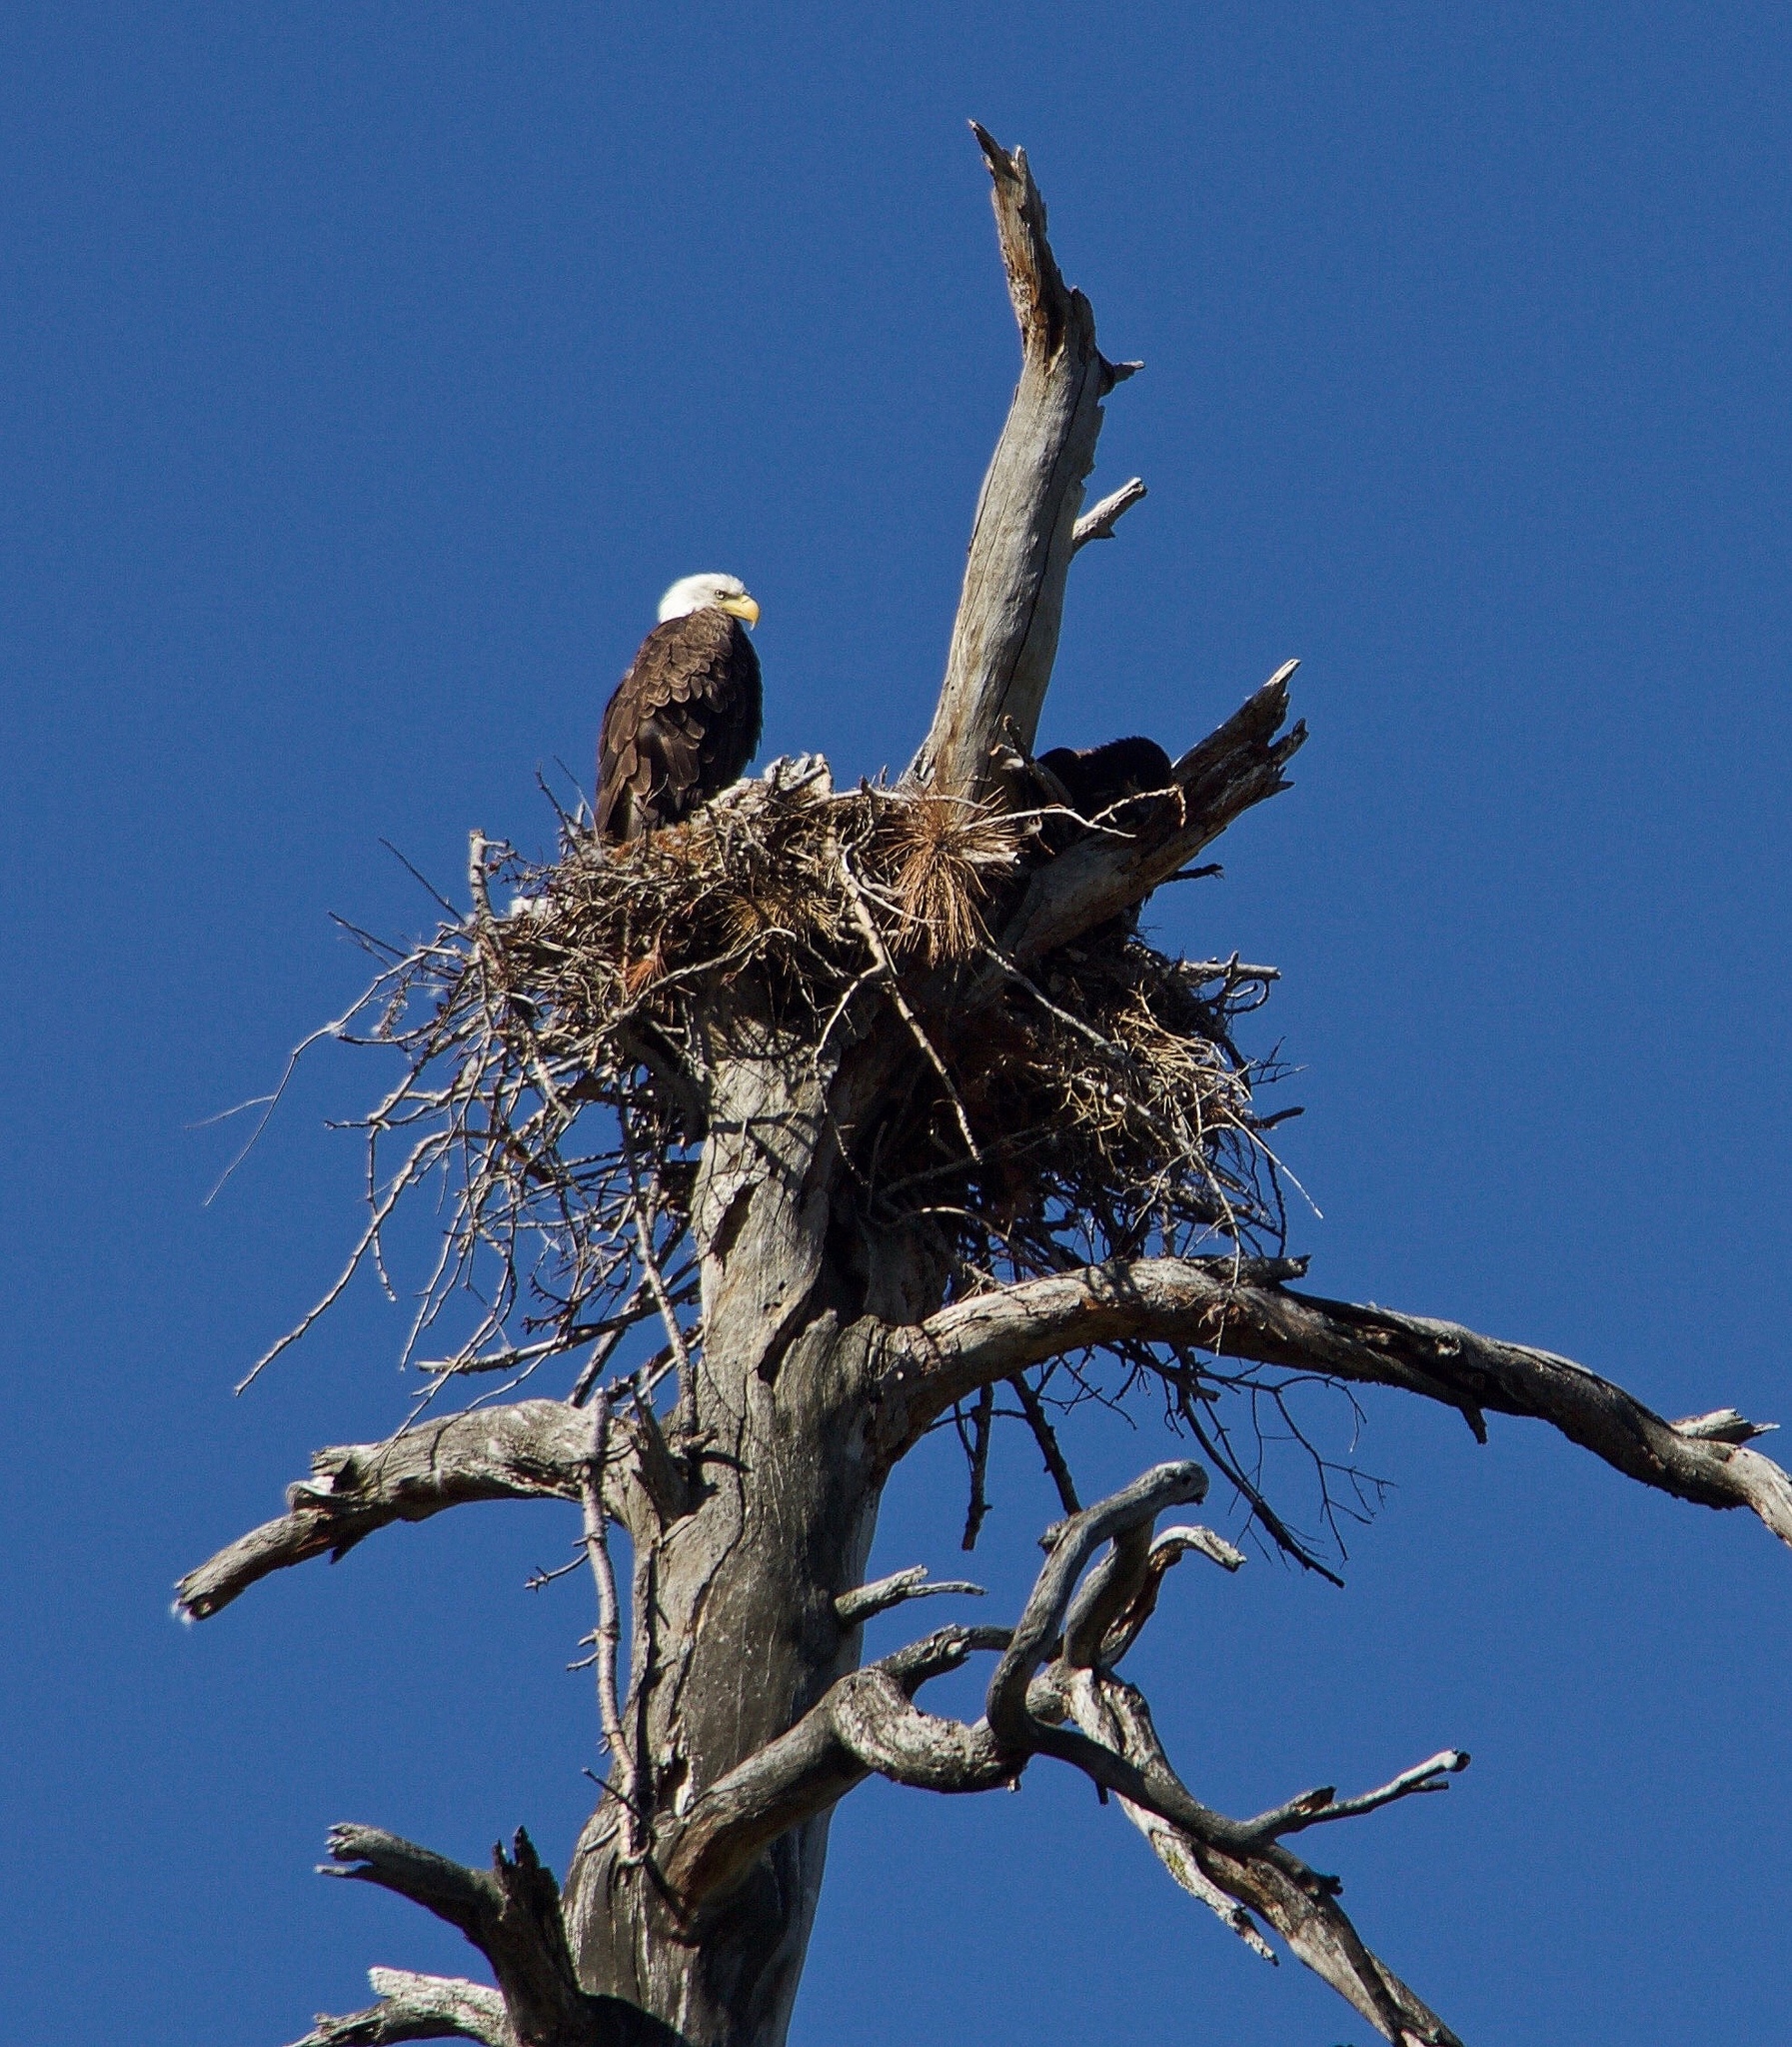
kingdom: Animalia
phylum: Chordata
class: Aves
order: Accipitriformes
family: Accipitridae
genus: Haliaeetus
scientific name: Haliaeetus leucocephalus
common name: Bald eagle
